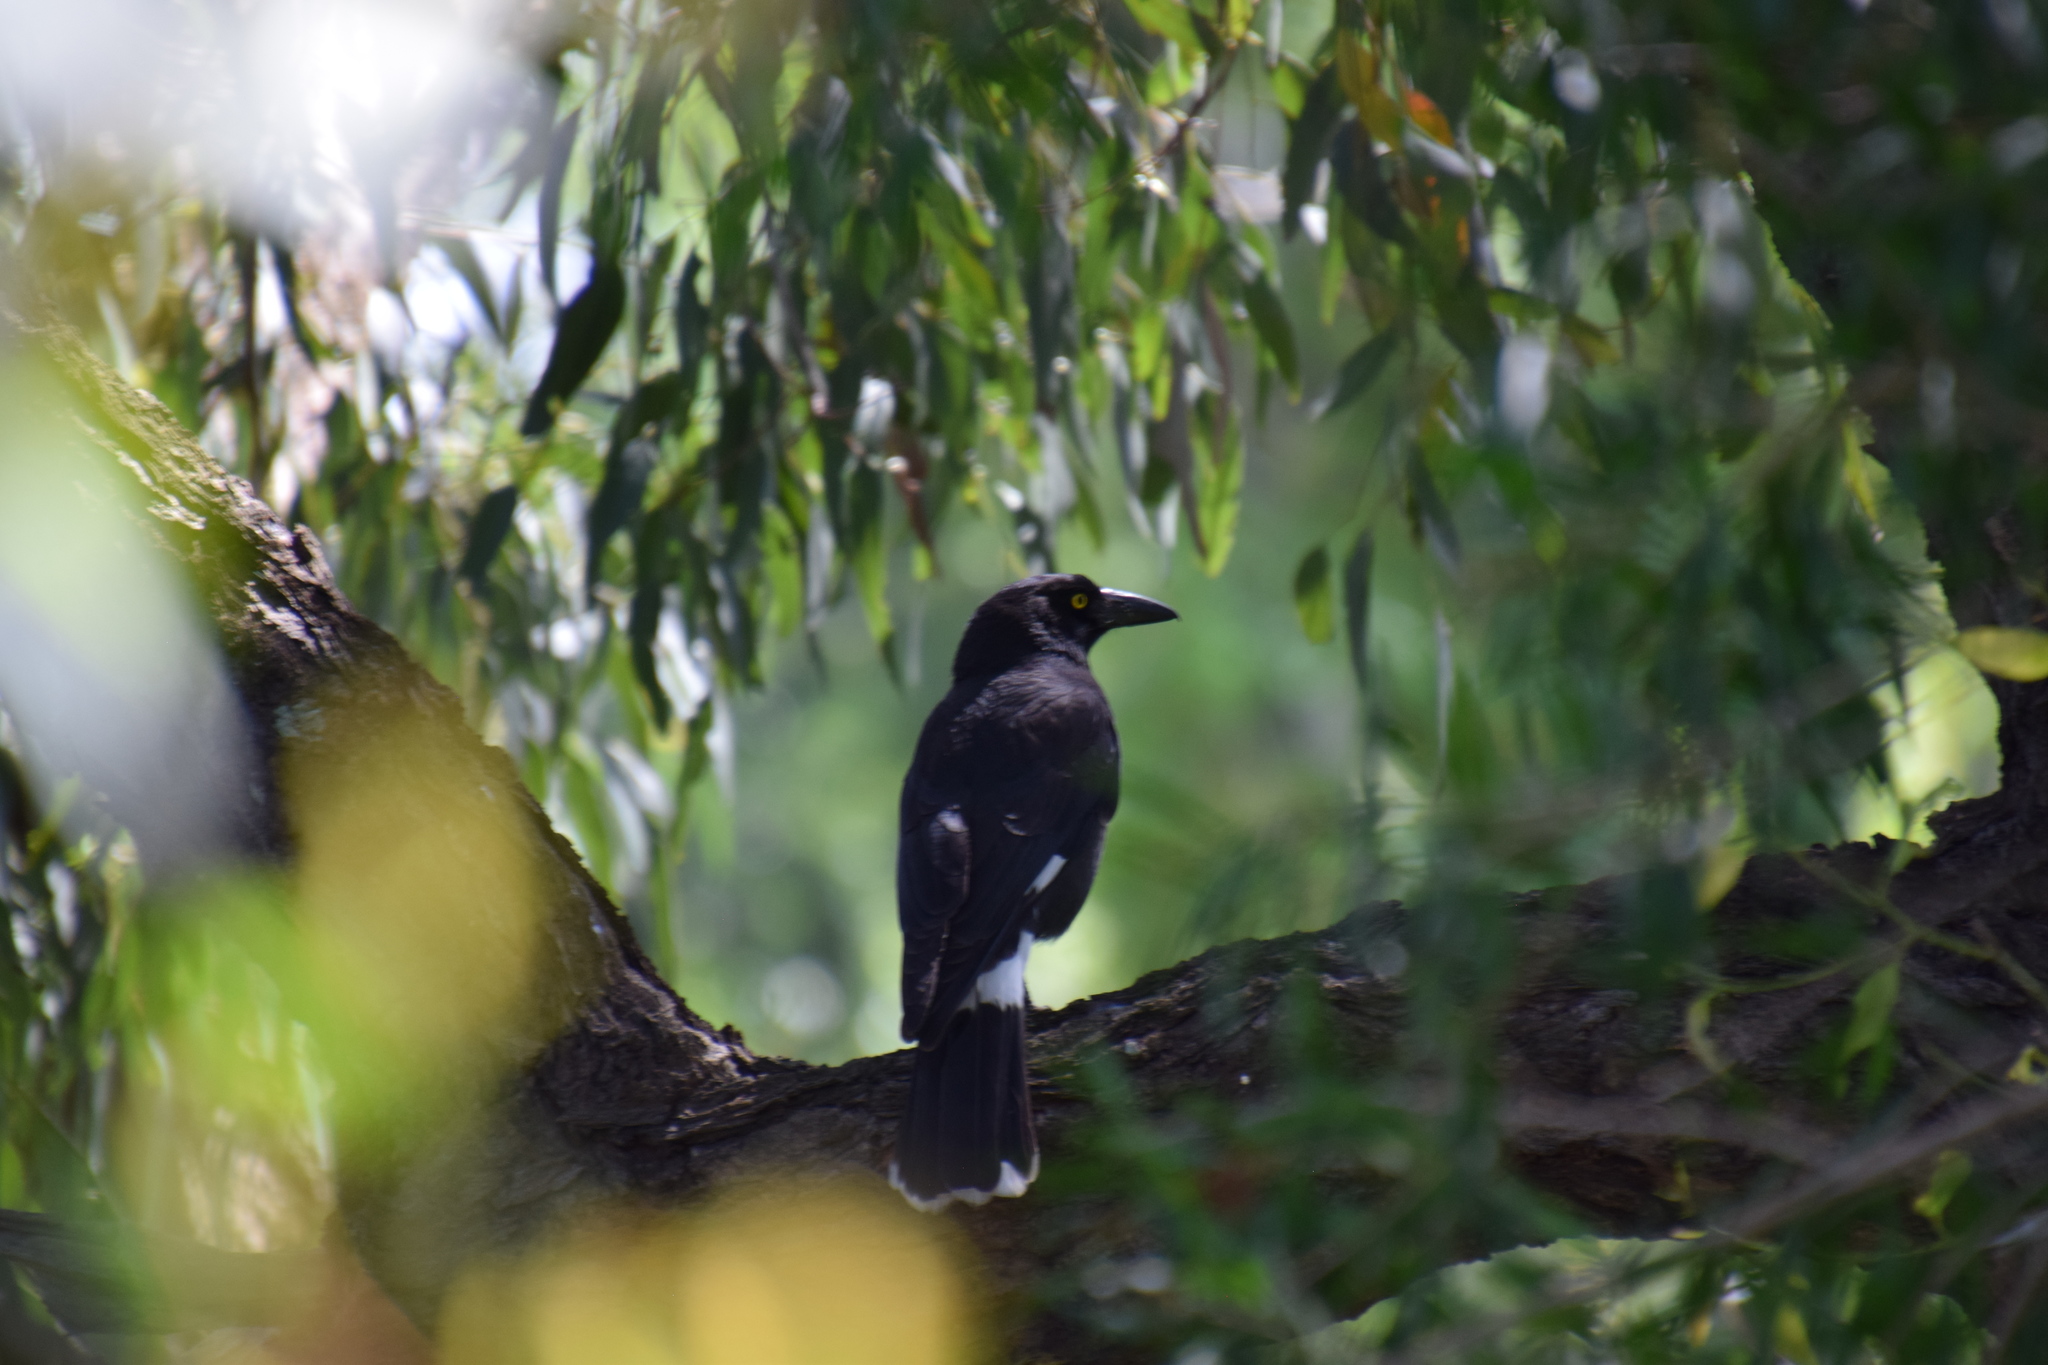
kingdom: Animalia
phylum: Chordata
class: Aves
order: Passeriformes
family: Cracticidae
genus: Strepera
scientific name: Strepera graculina
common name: Pied currawong
